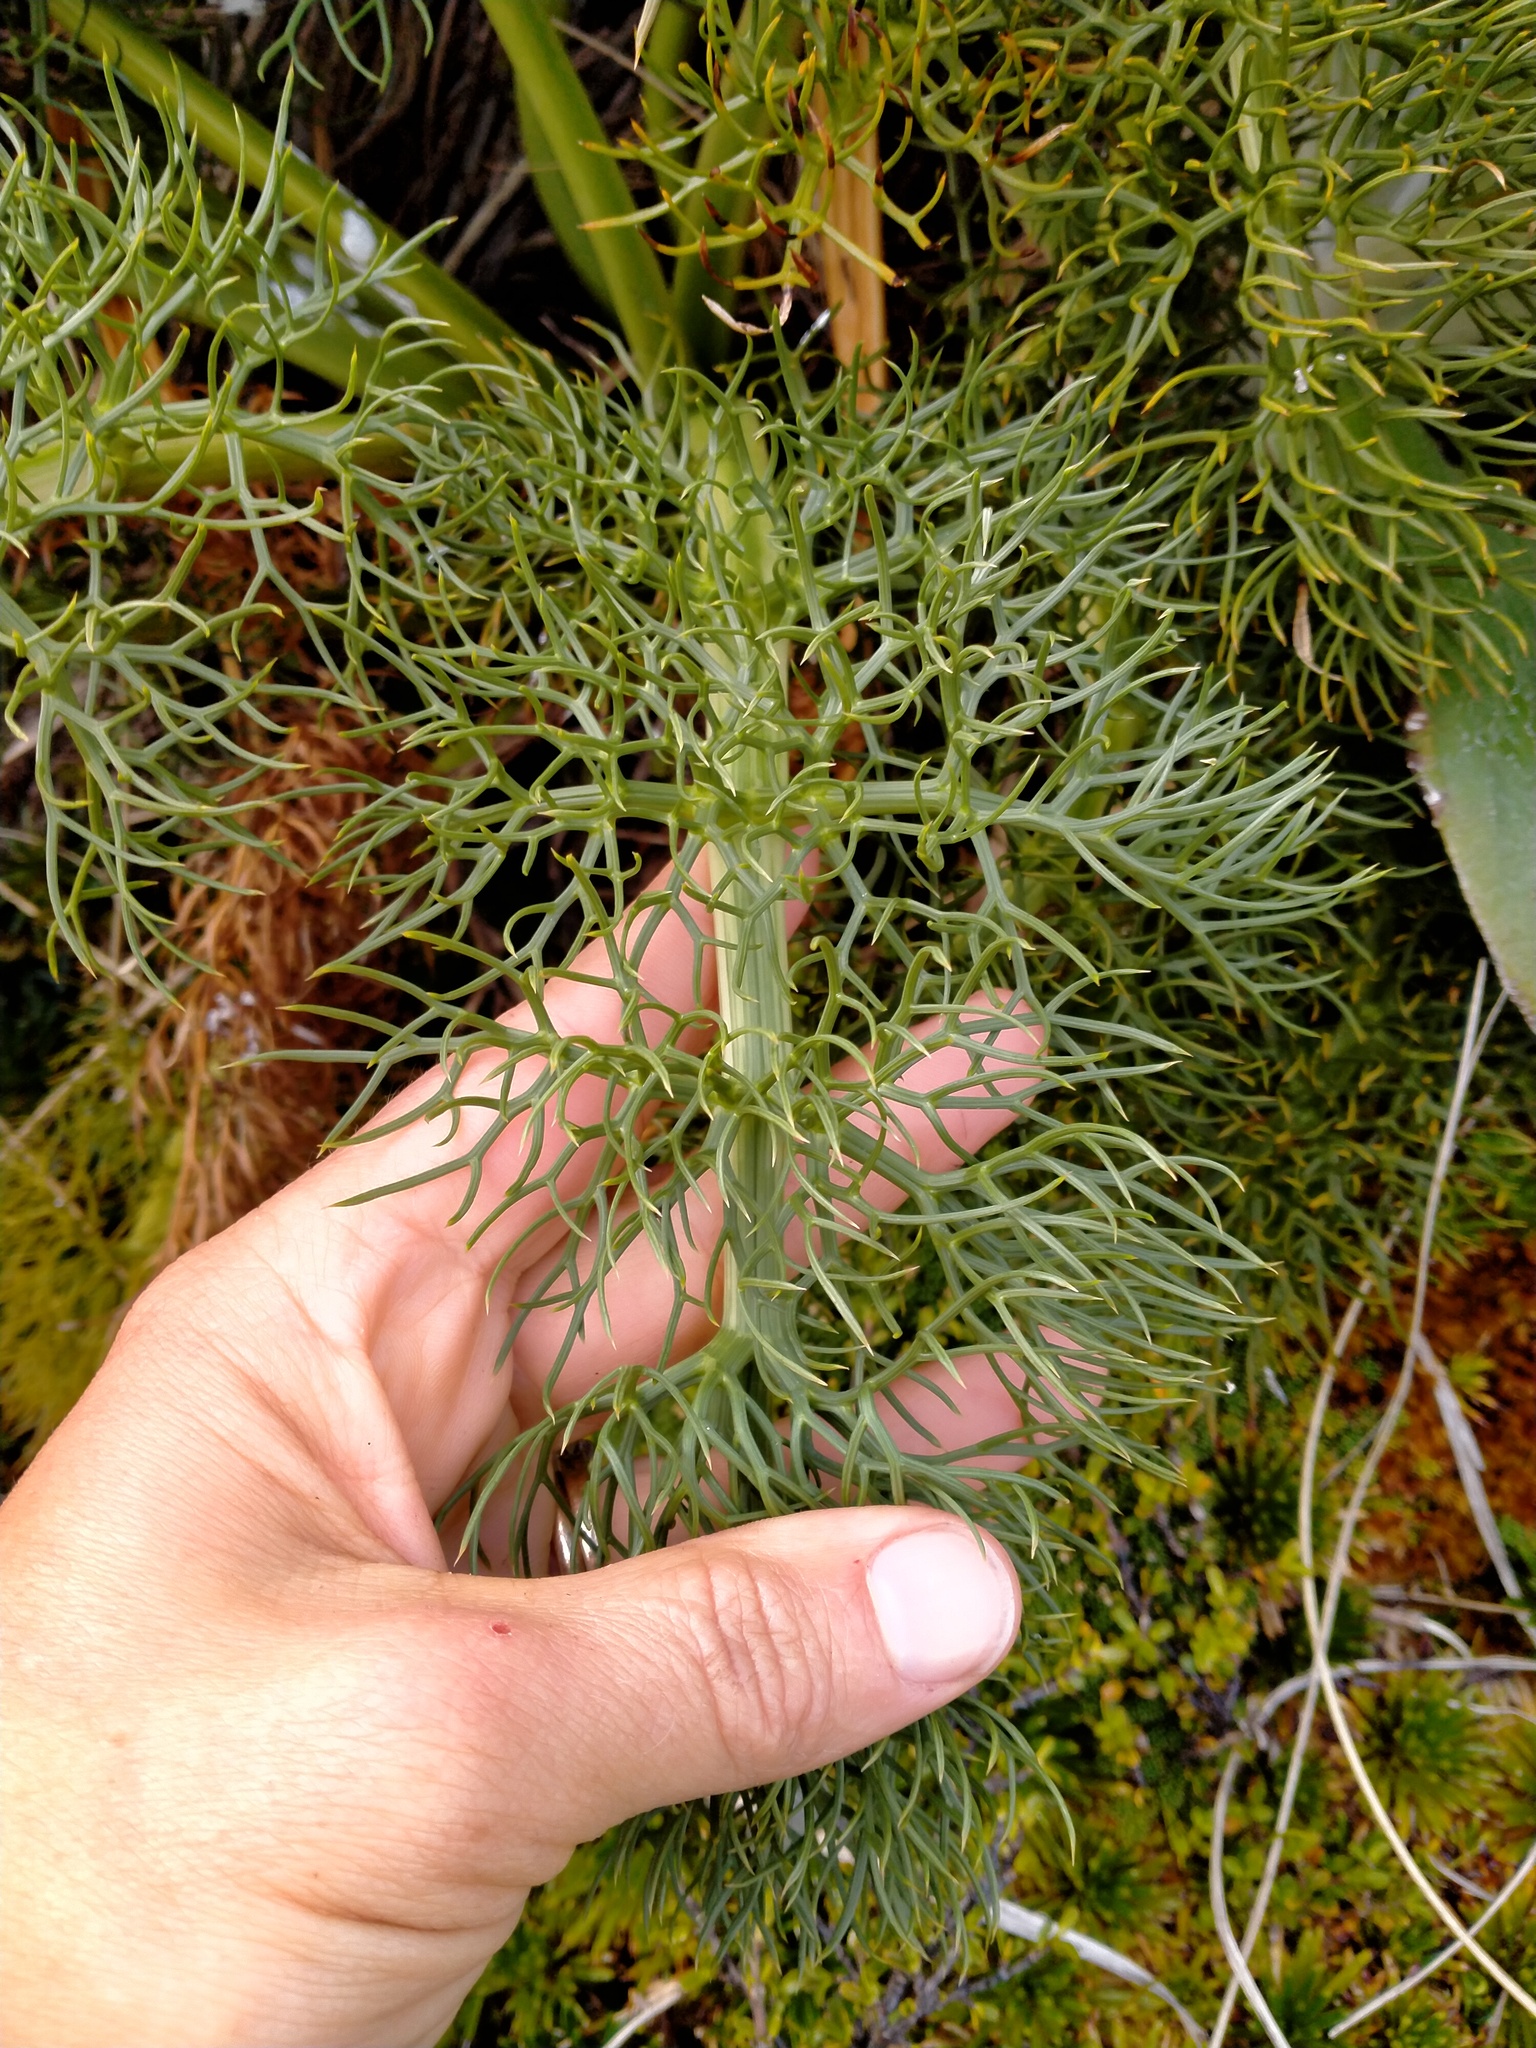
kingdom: Plantae
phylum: Tracheophyta
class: Magnoliopsida
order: Apiales
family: Apiaceae
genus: Anisotome
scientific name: Anisotome antipoda
